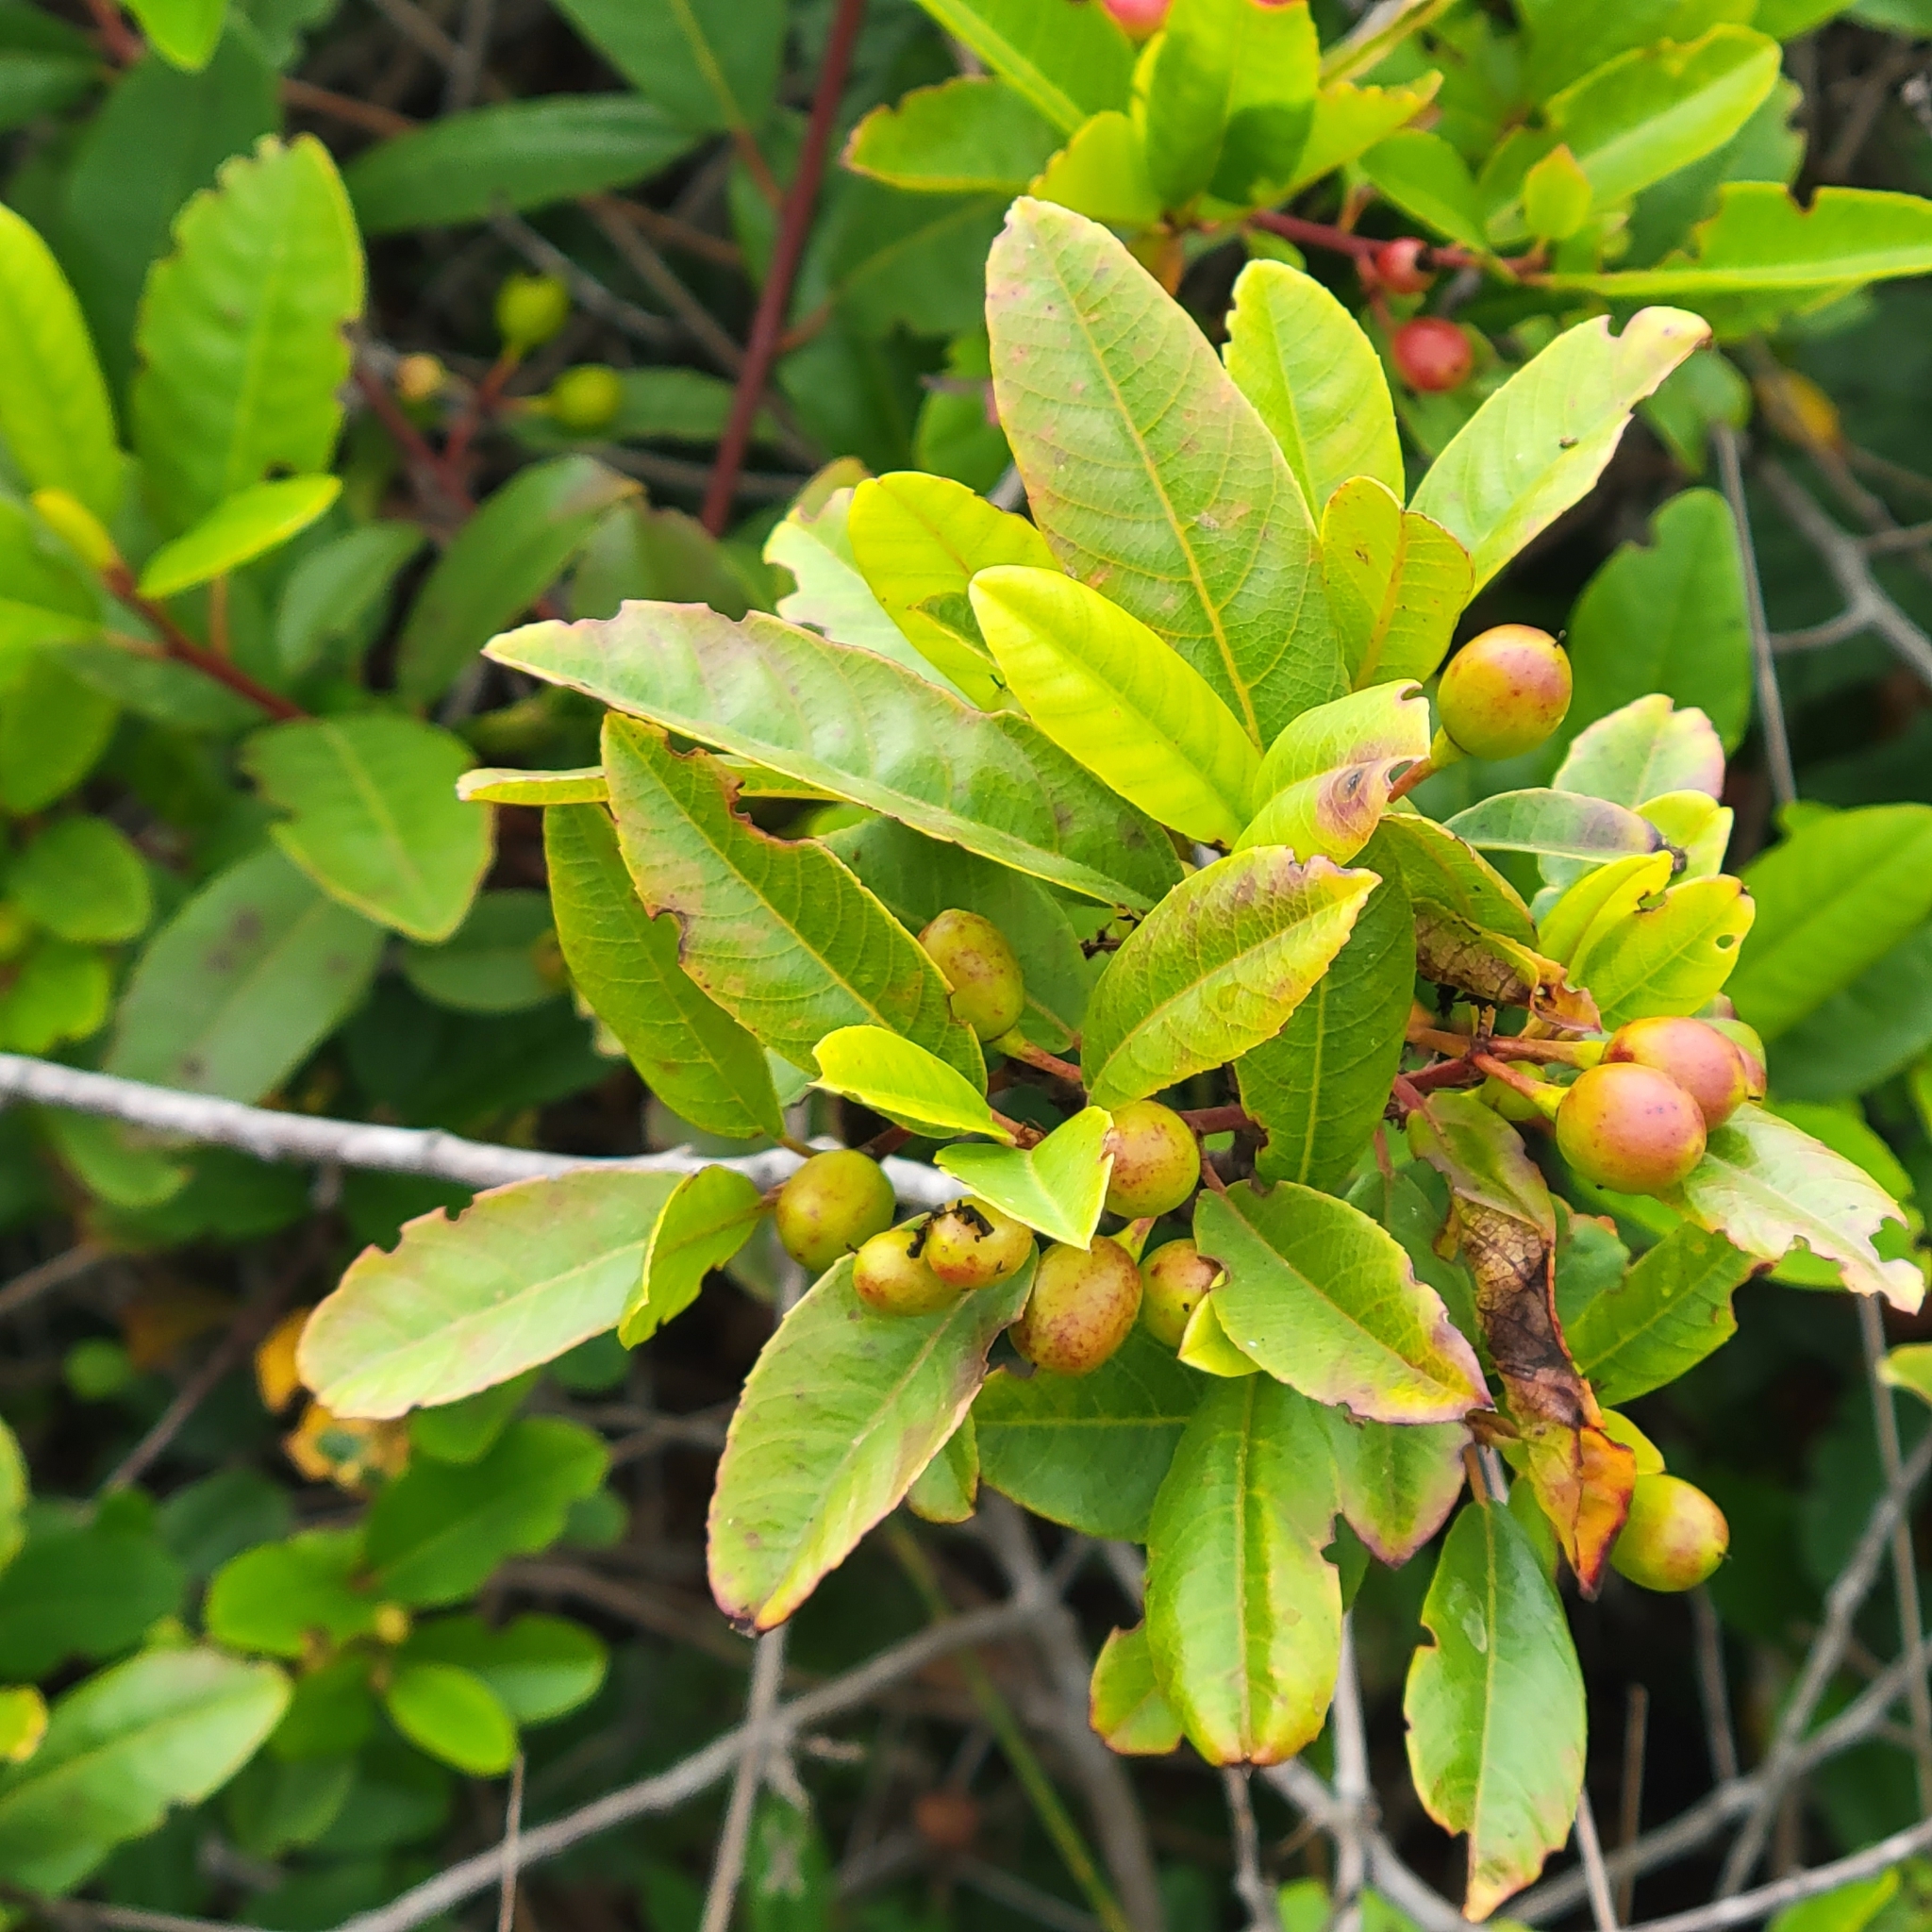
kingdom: Plantae
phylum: Tracheophyta
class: Magnoliopsida
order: Rosales
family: Rhamnaceae
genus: Frangula
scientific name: Frangula californica
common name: California buckthorn
